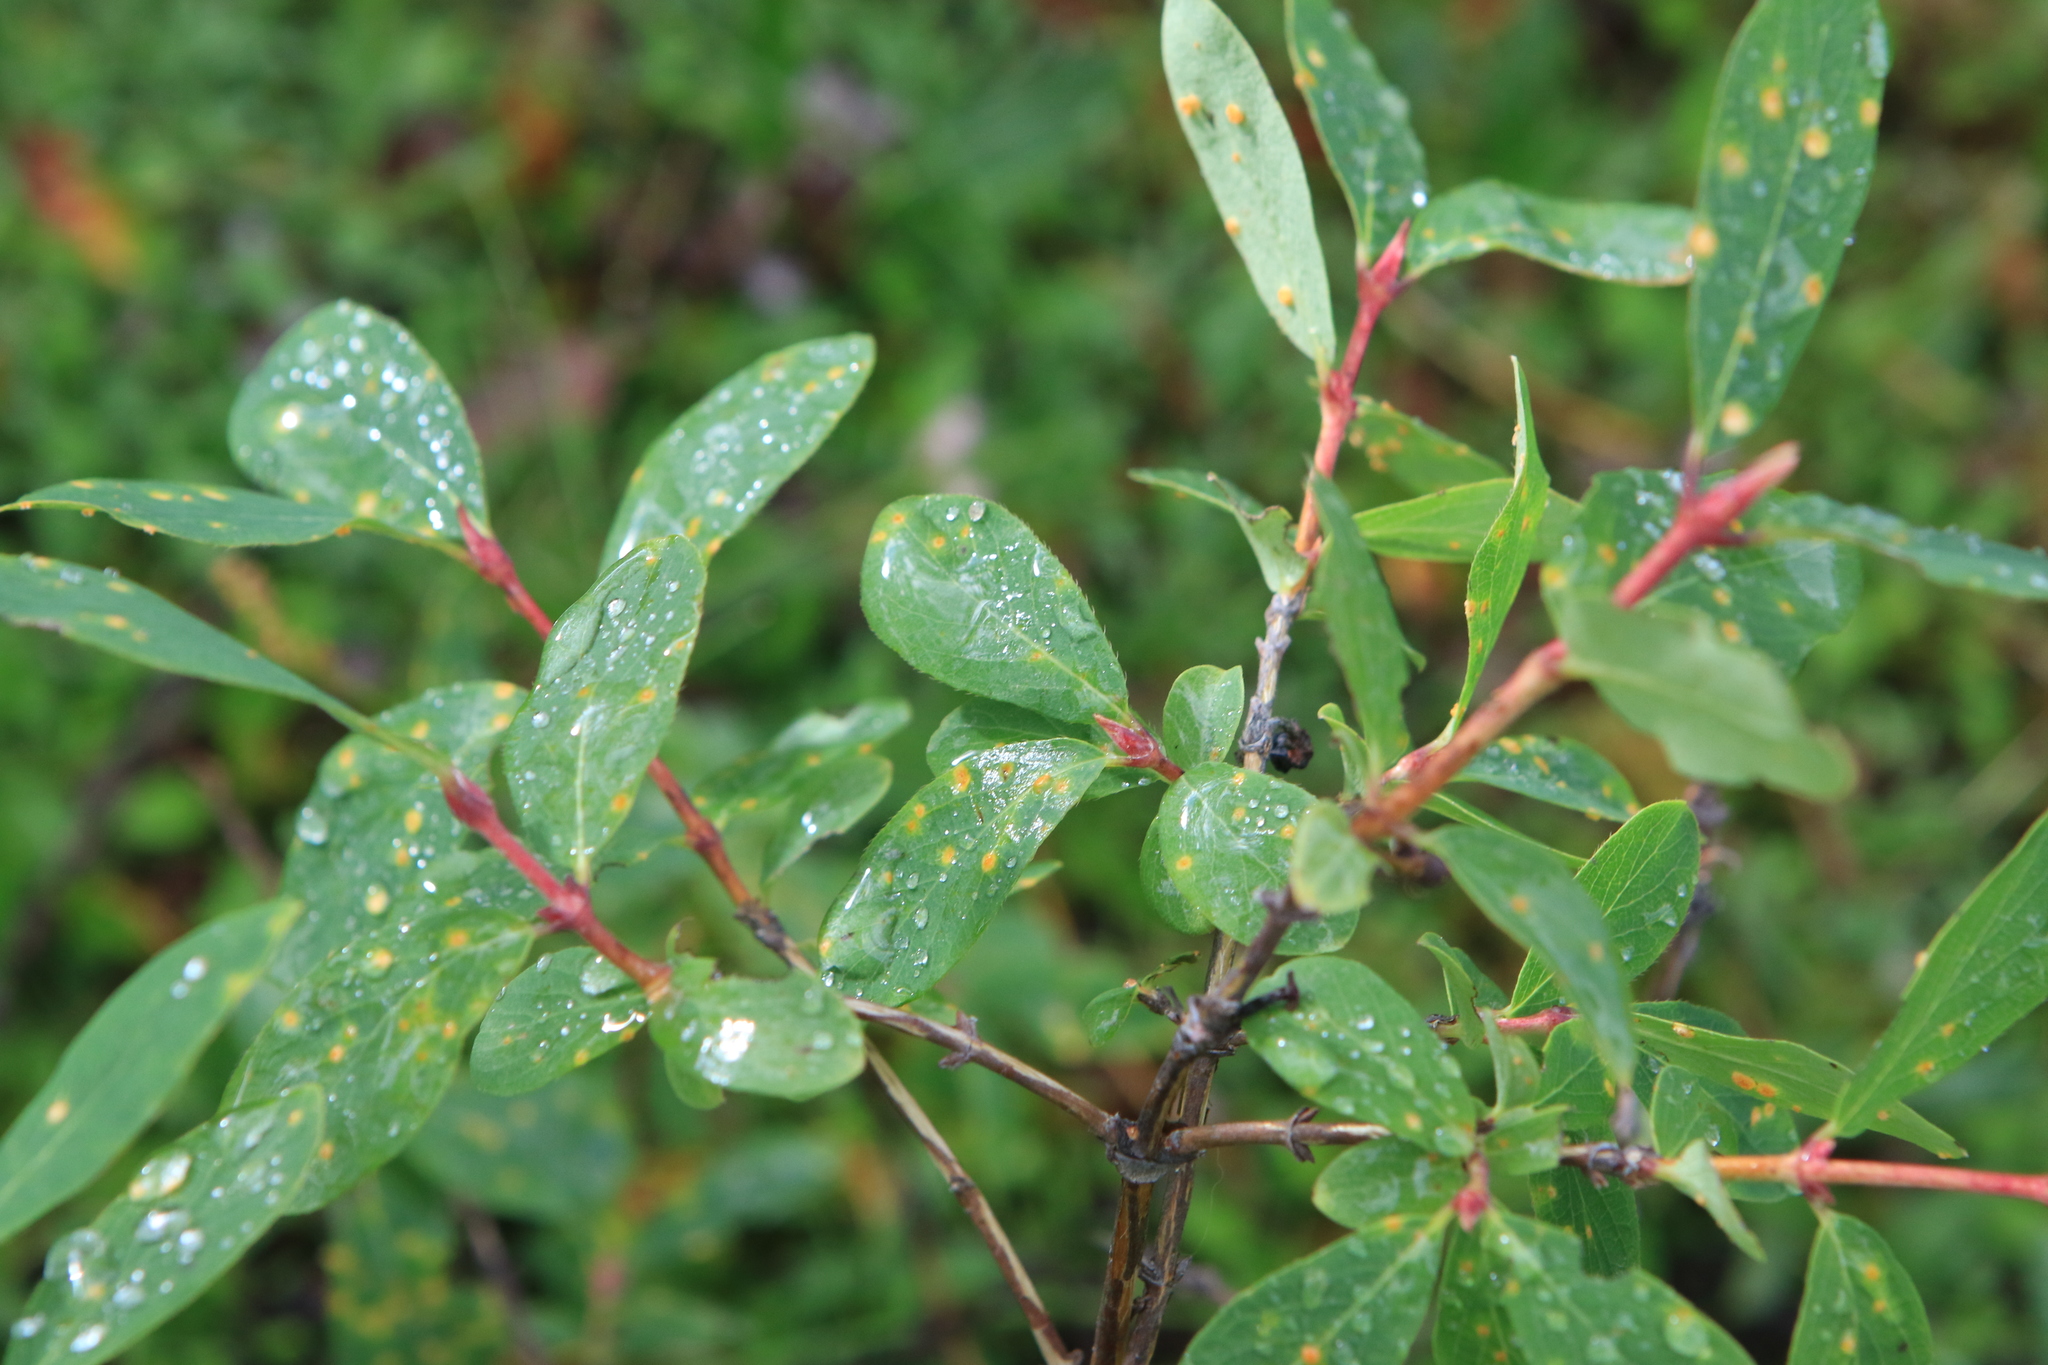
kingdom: Plantae
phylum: Tracheophyta
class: Magnoliopsida
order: Dipsacales
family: Caprifoliaceae
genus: Lonicera
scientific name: Lonicera caerulea
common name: Blue honeysuckle
